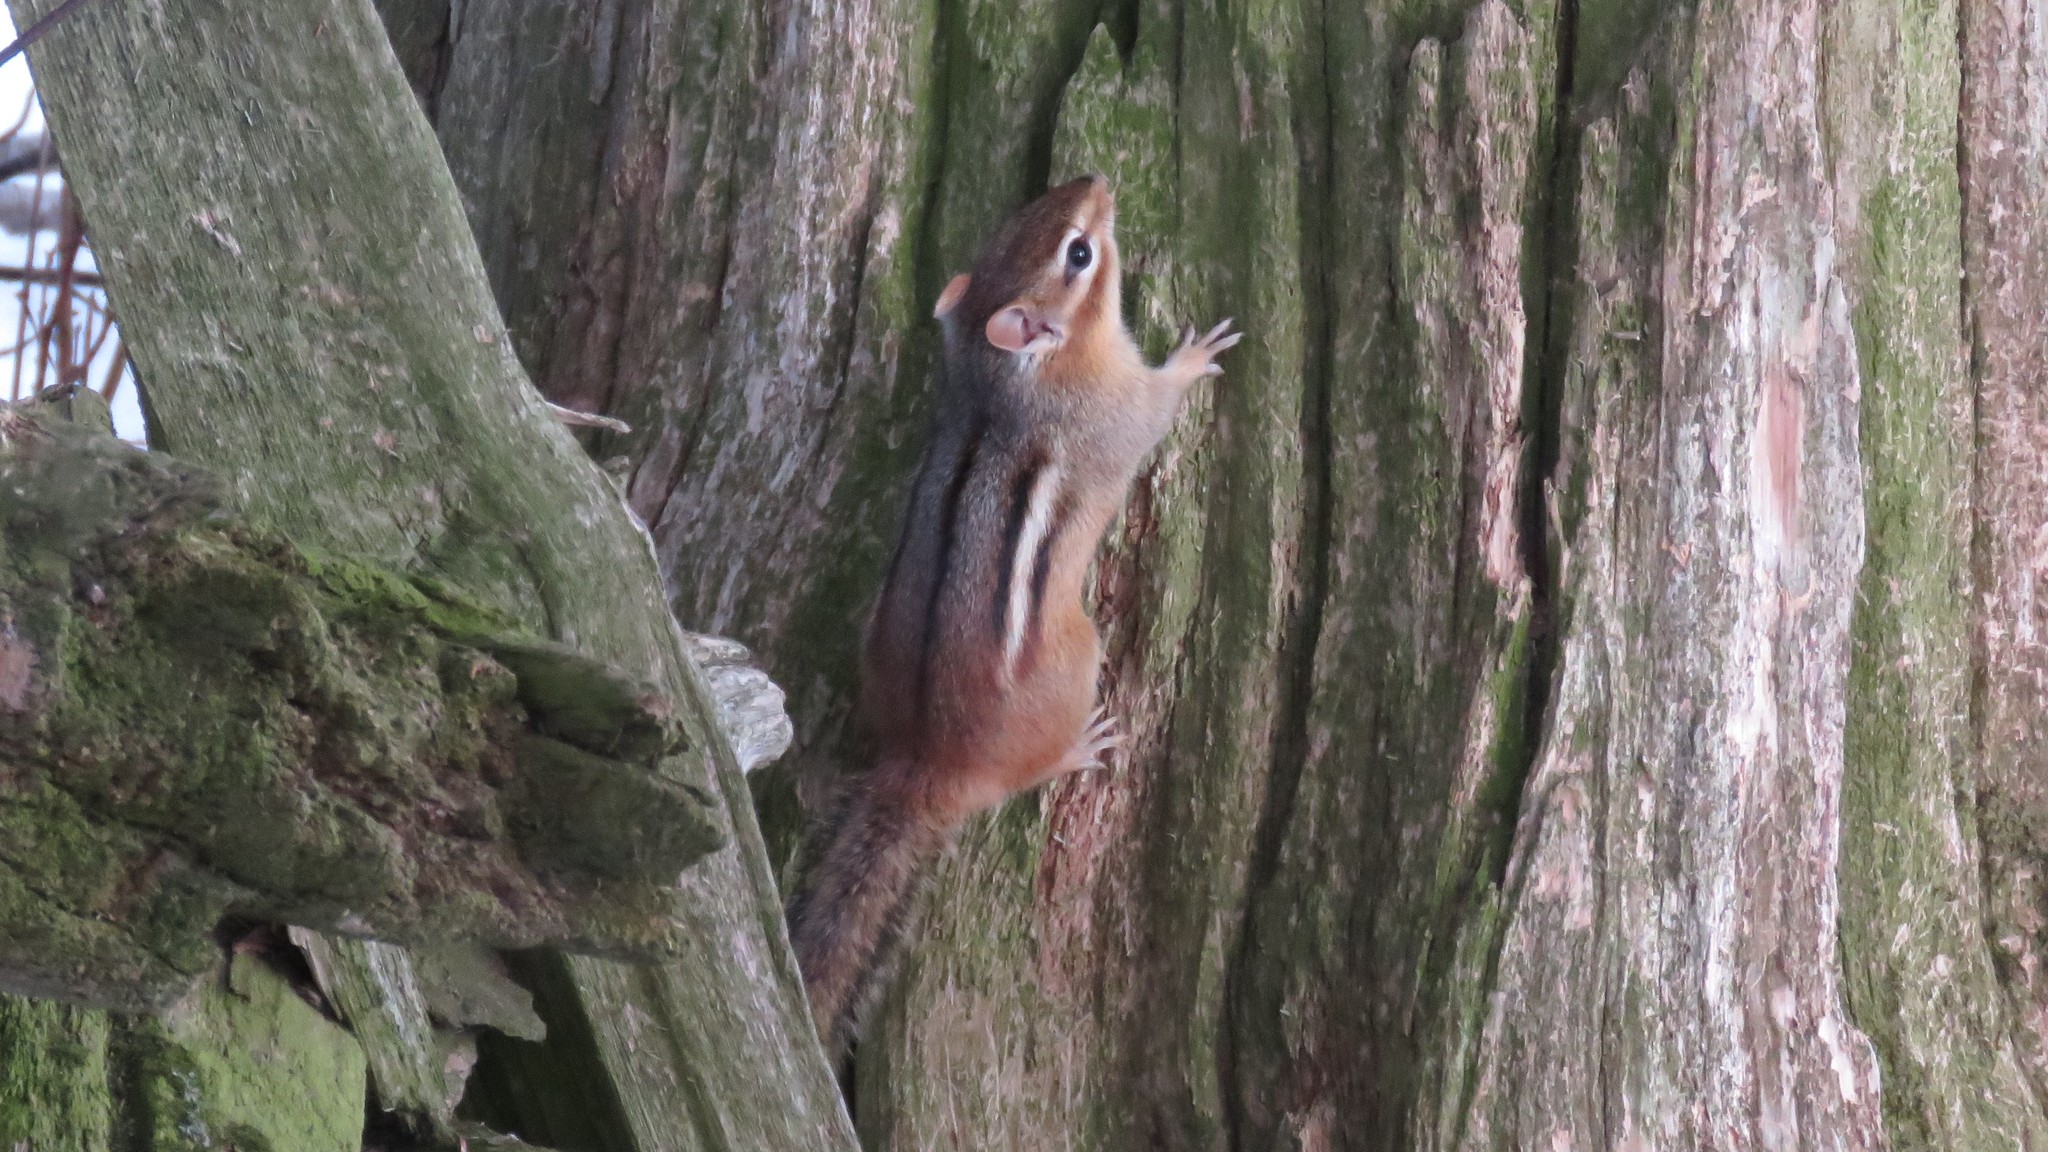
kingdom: Animalia
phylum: Chordata
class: Mammalia
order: Rodentia
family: Sciuridae
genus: Tamias
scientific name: Tamias striatus
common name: Eastern chipmunk
